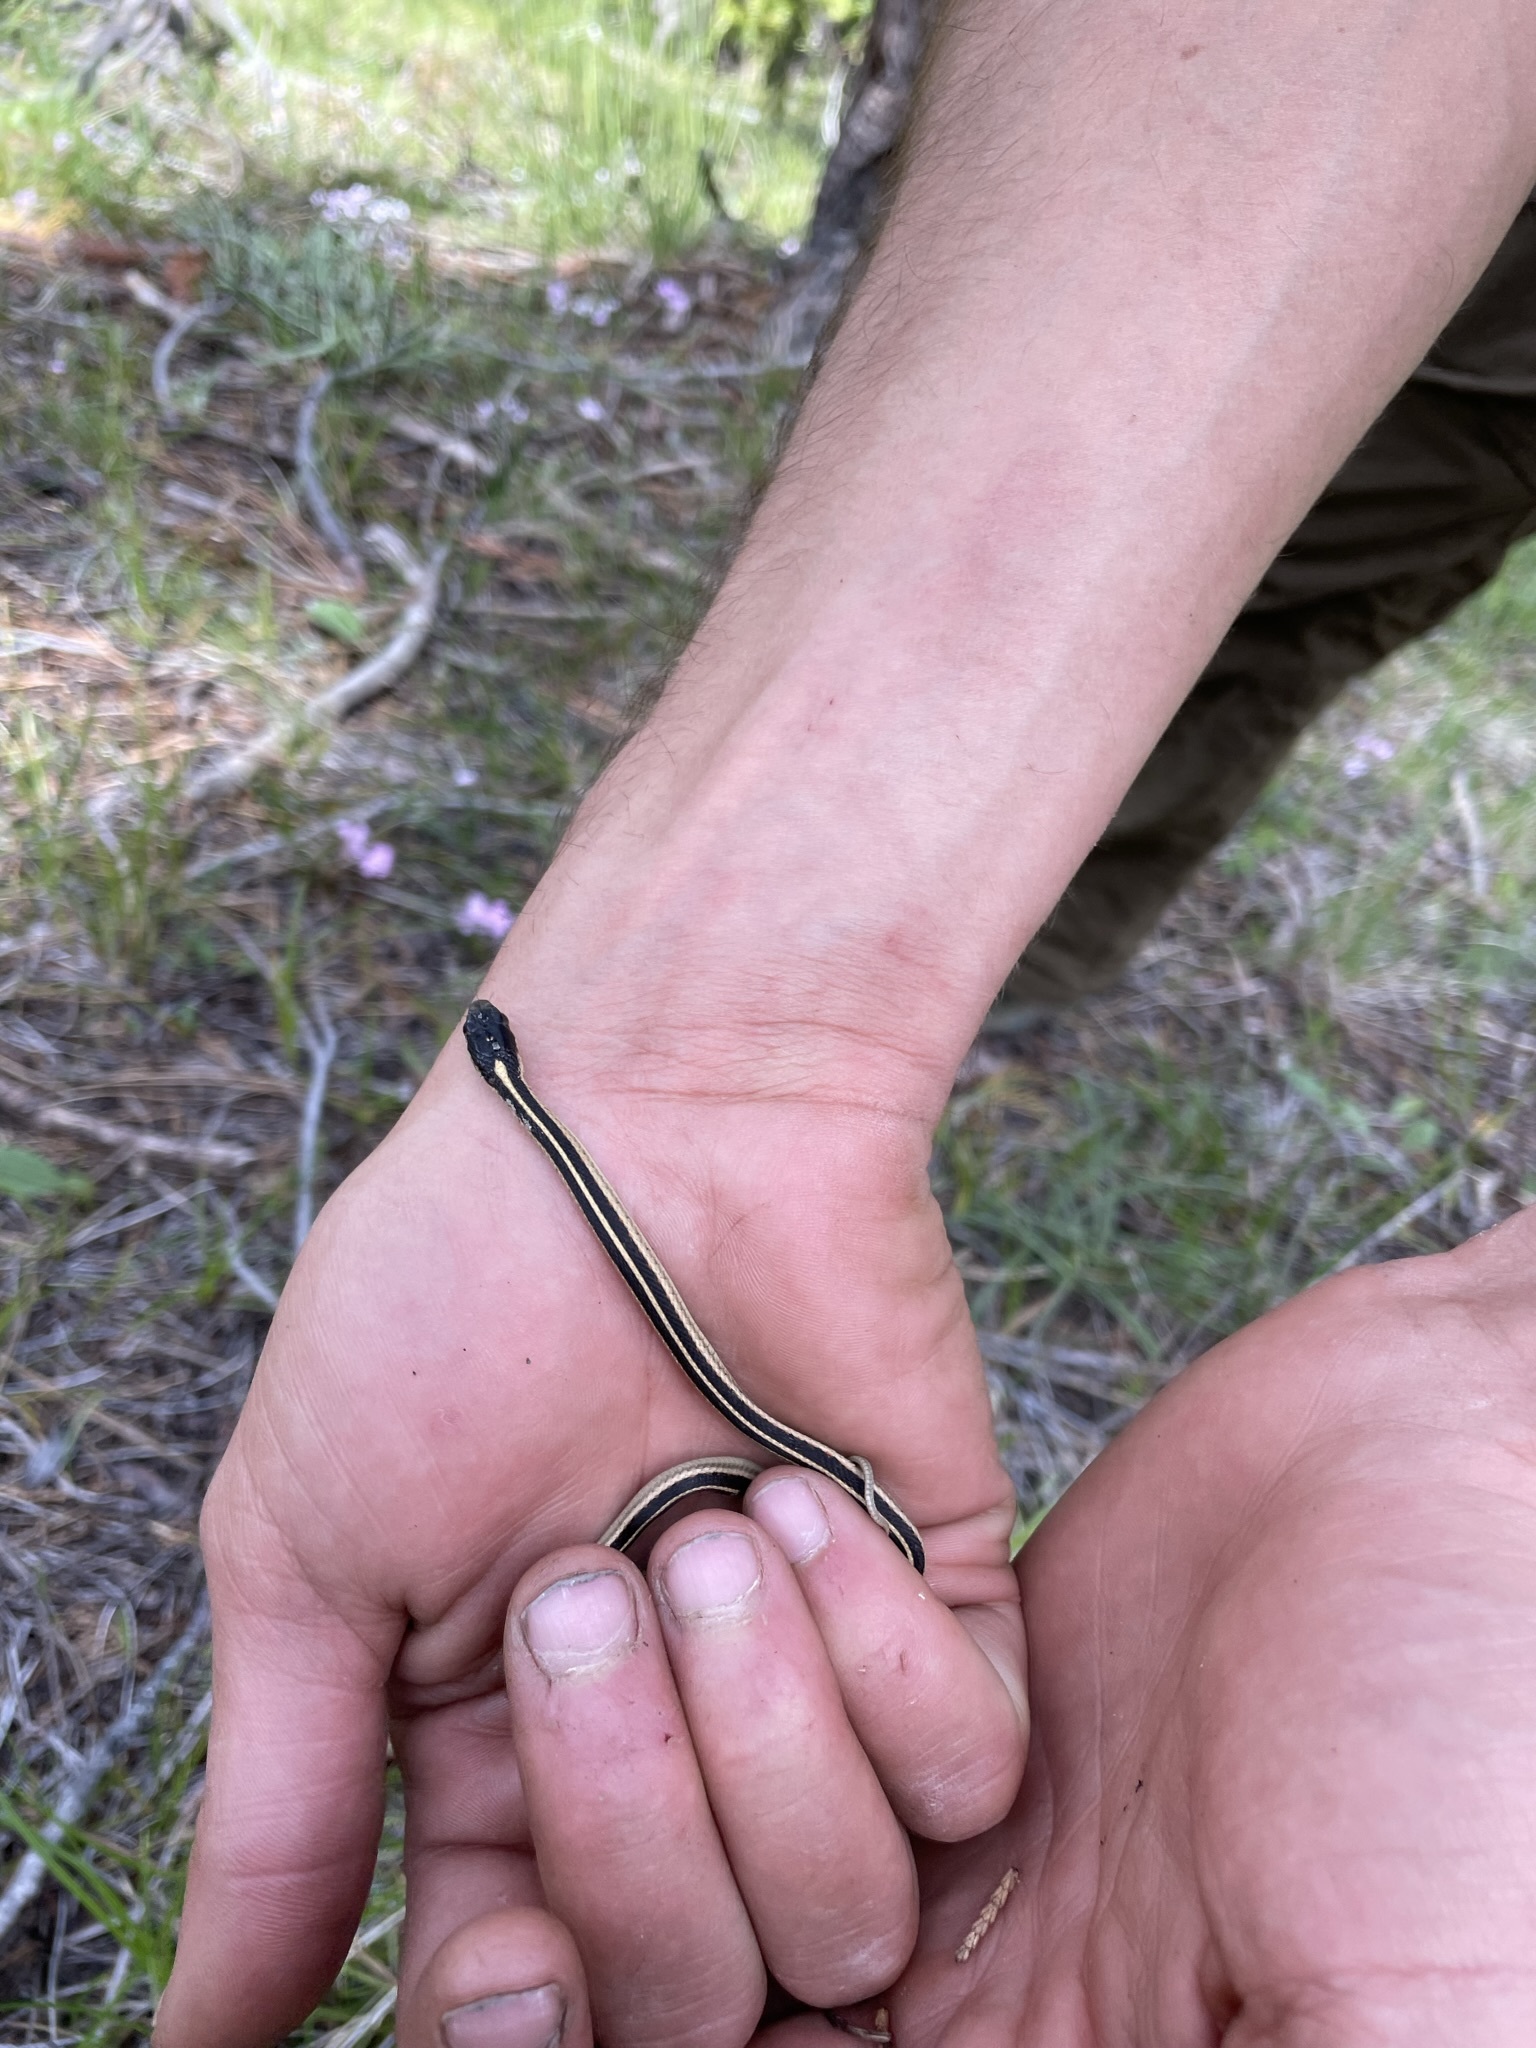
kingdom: Animalia
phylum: Chordata
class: Squamata
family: Colubridae
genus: Thamnophis
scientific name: Thamnophis sirtalis
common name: Common garter snake
